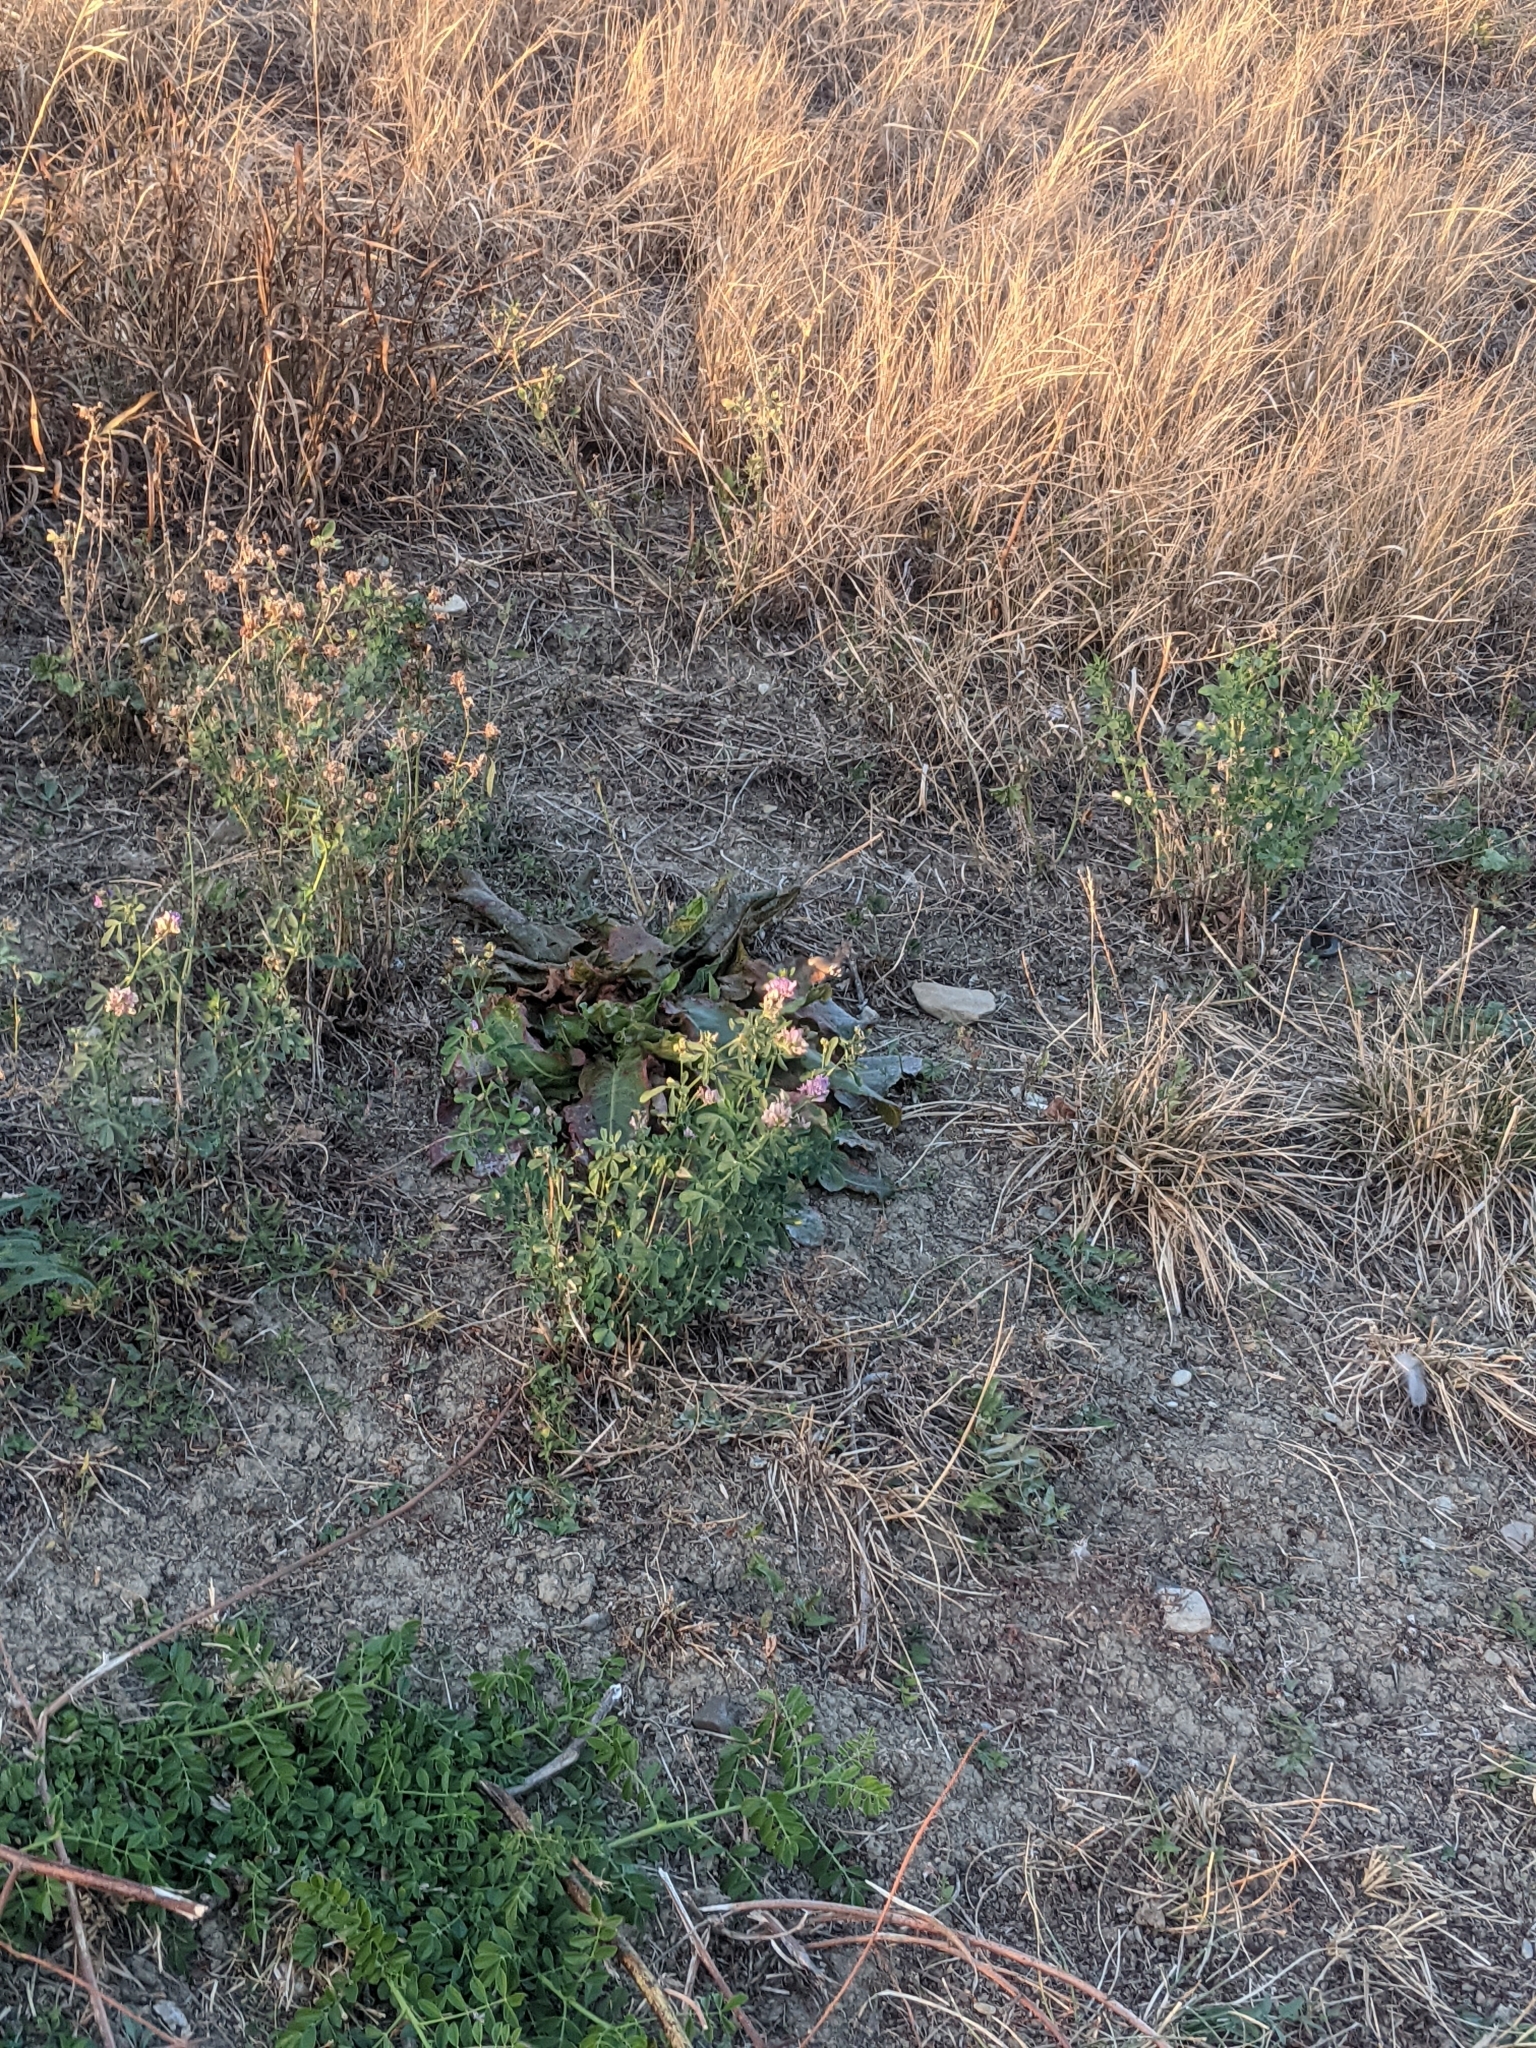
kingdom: Animalia
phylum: Arthropoda
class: Insecta
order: Lepidoptera
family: Sphingidae
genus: Macroglossum
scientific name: Macroglossum stellatarum
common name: Humming-bird hawk-moth
